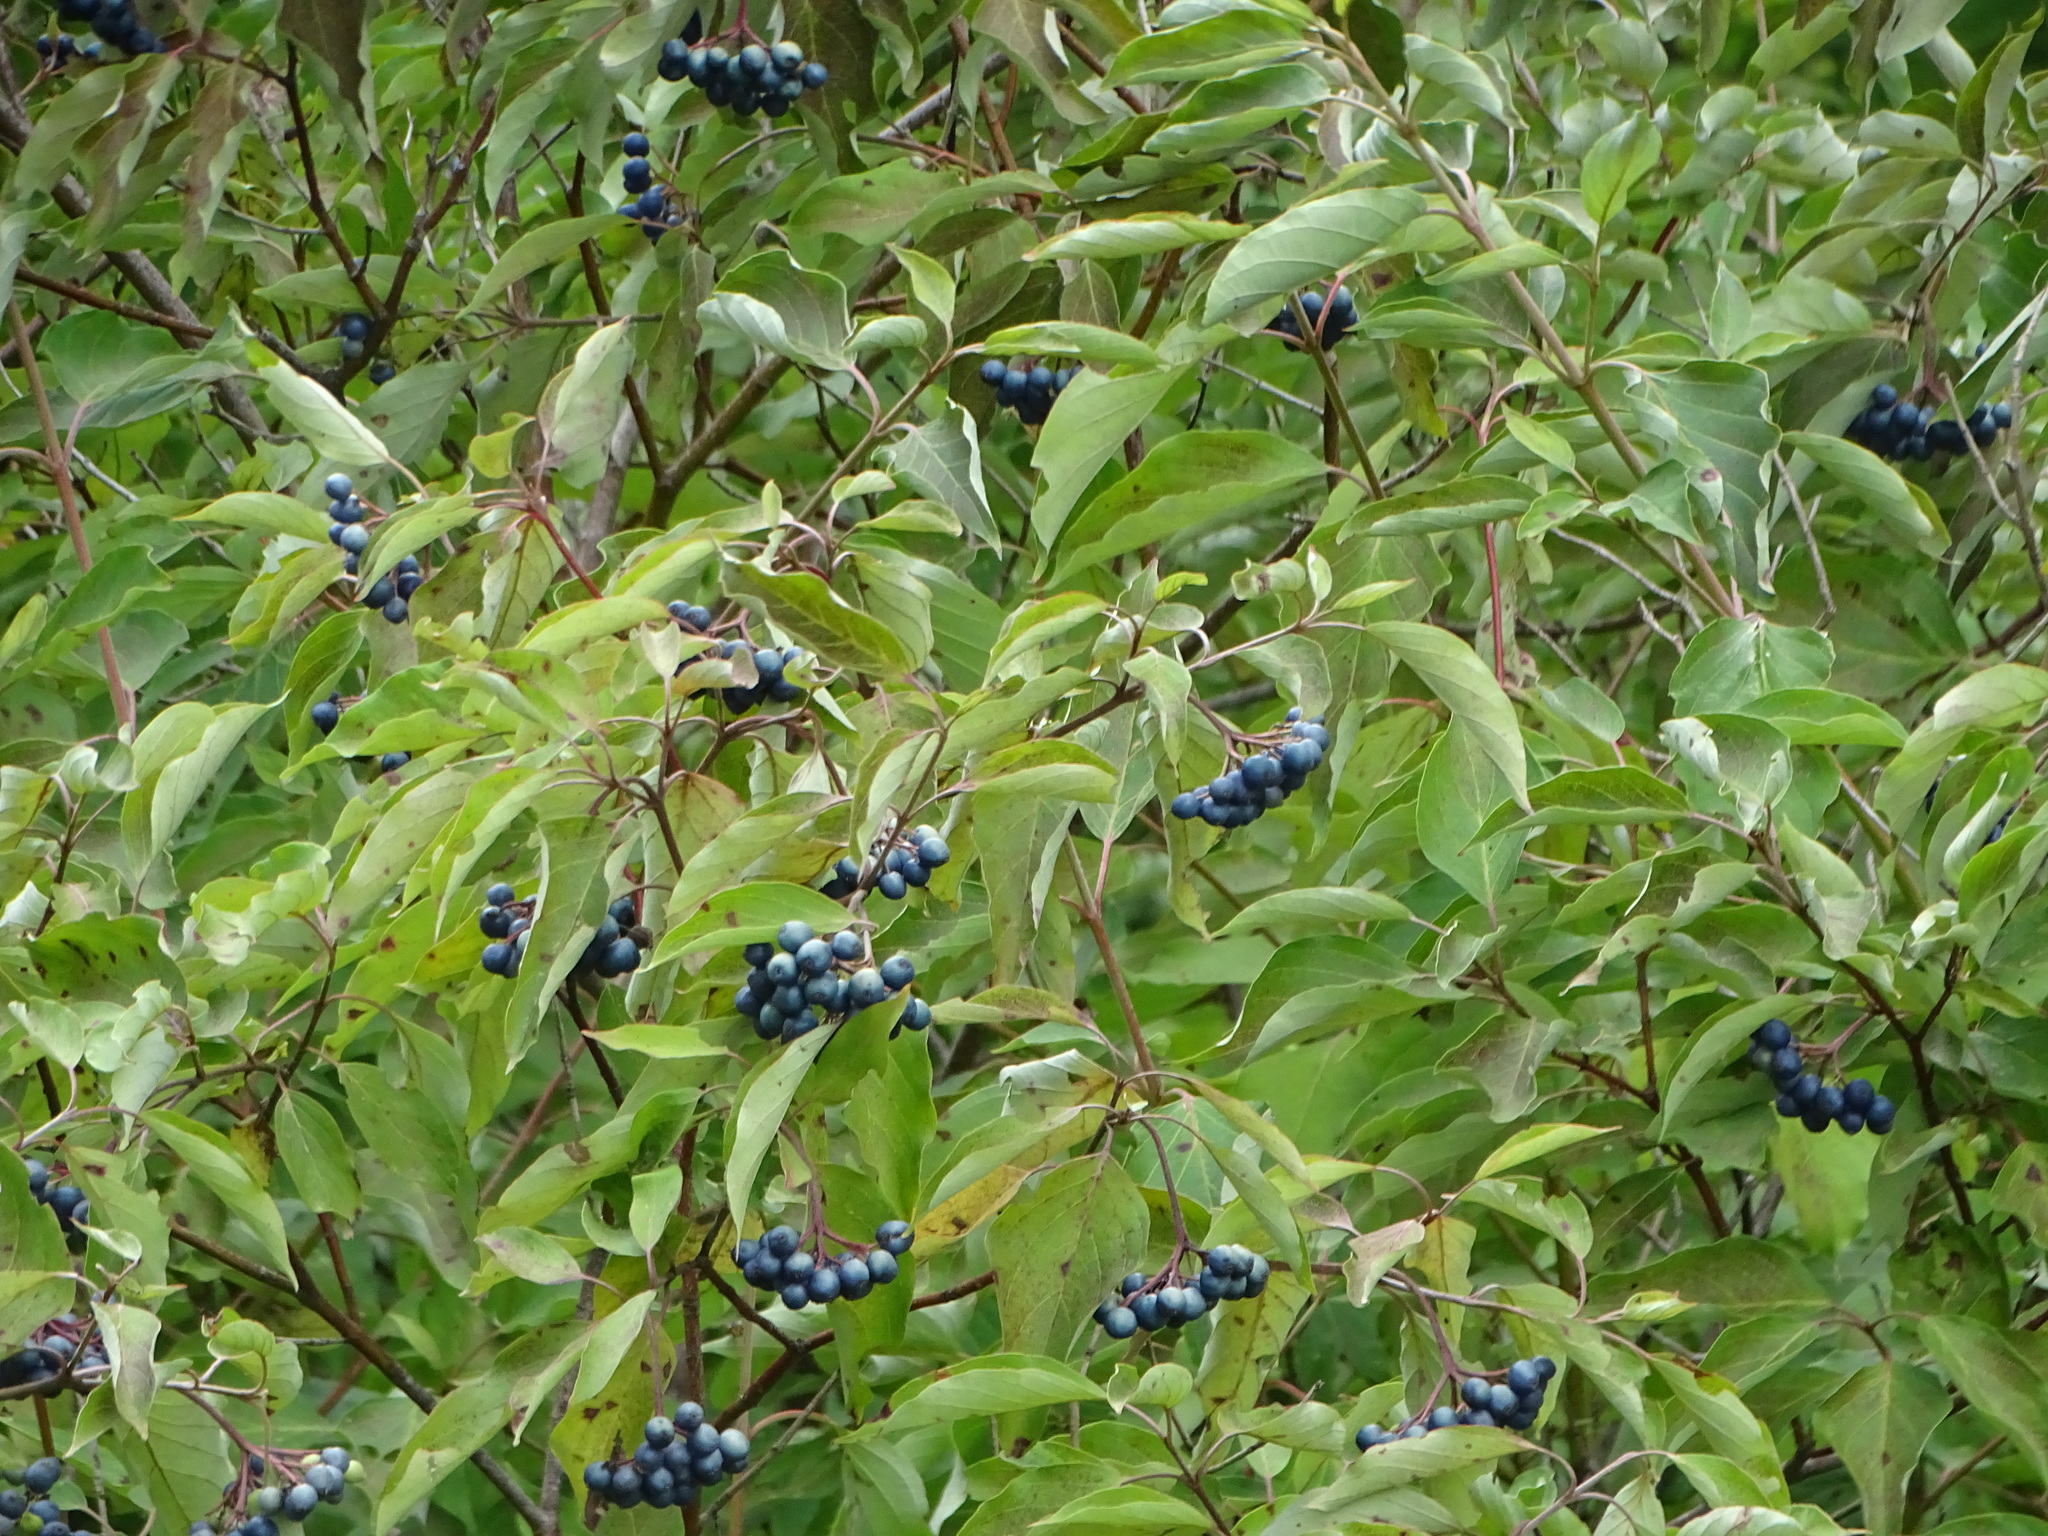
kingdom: Plantae
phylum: Tracheophyta
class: Magnoliopsida
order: Cornales
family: Cornaceae
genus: Cornus
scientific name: Cornus amomum
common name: Silky dogwood
